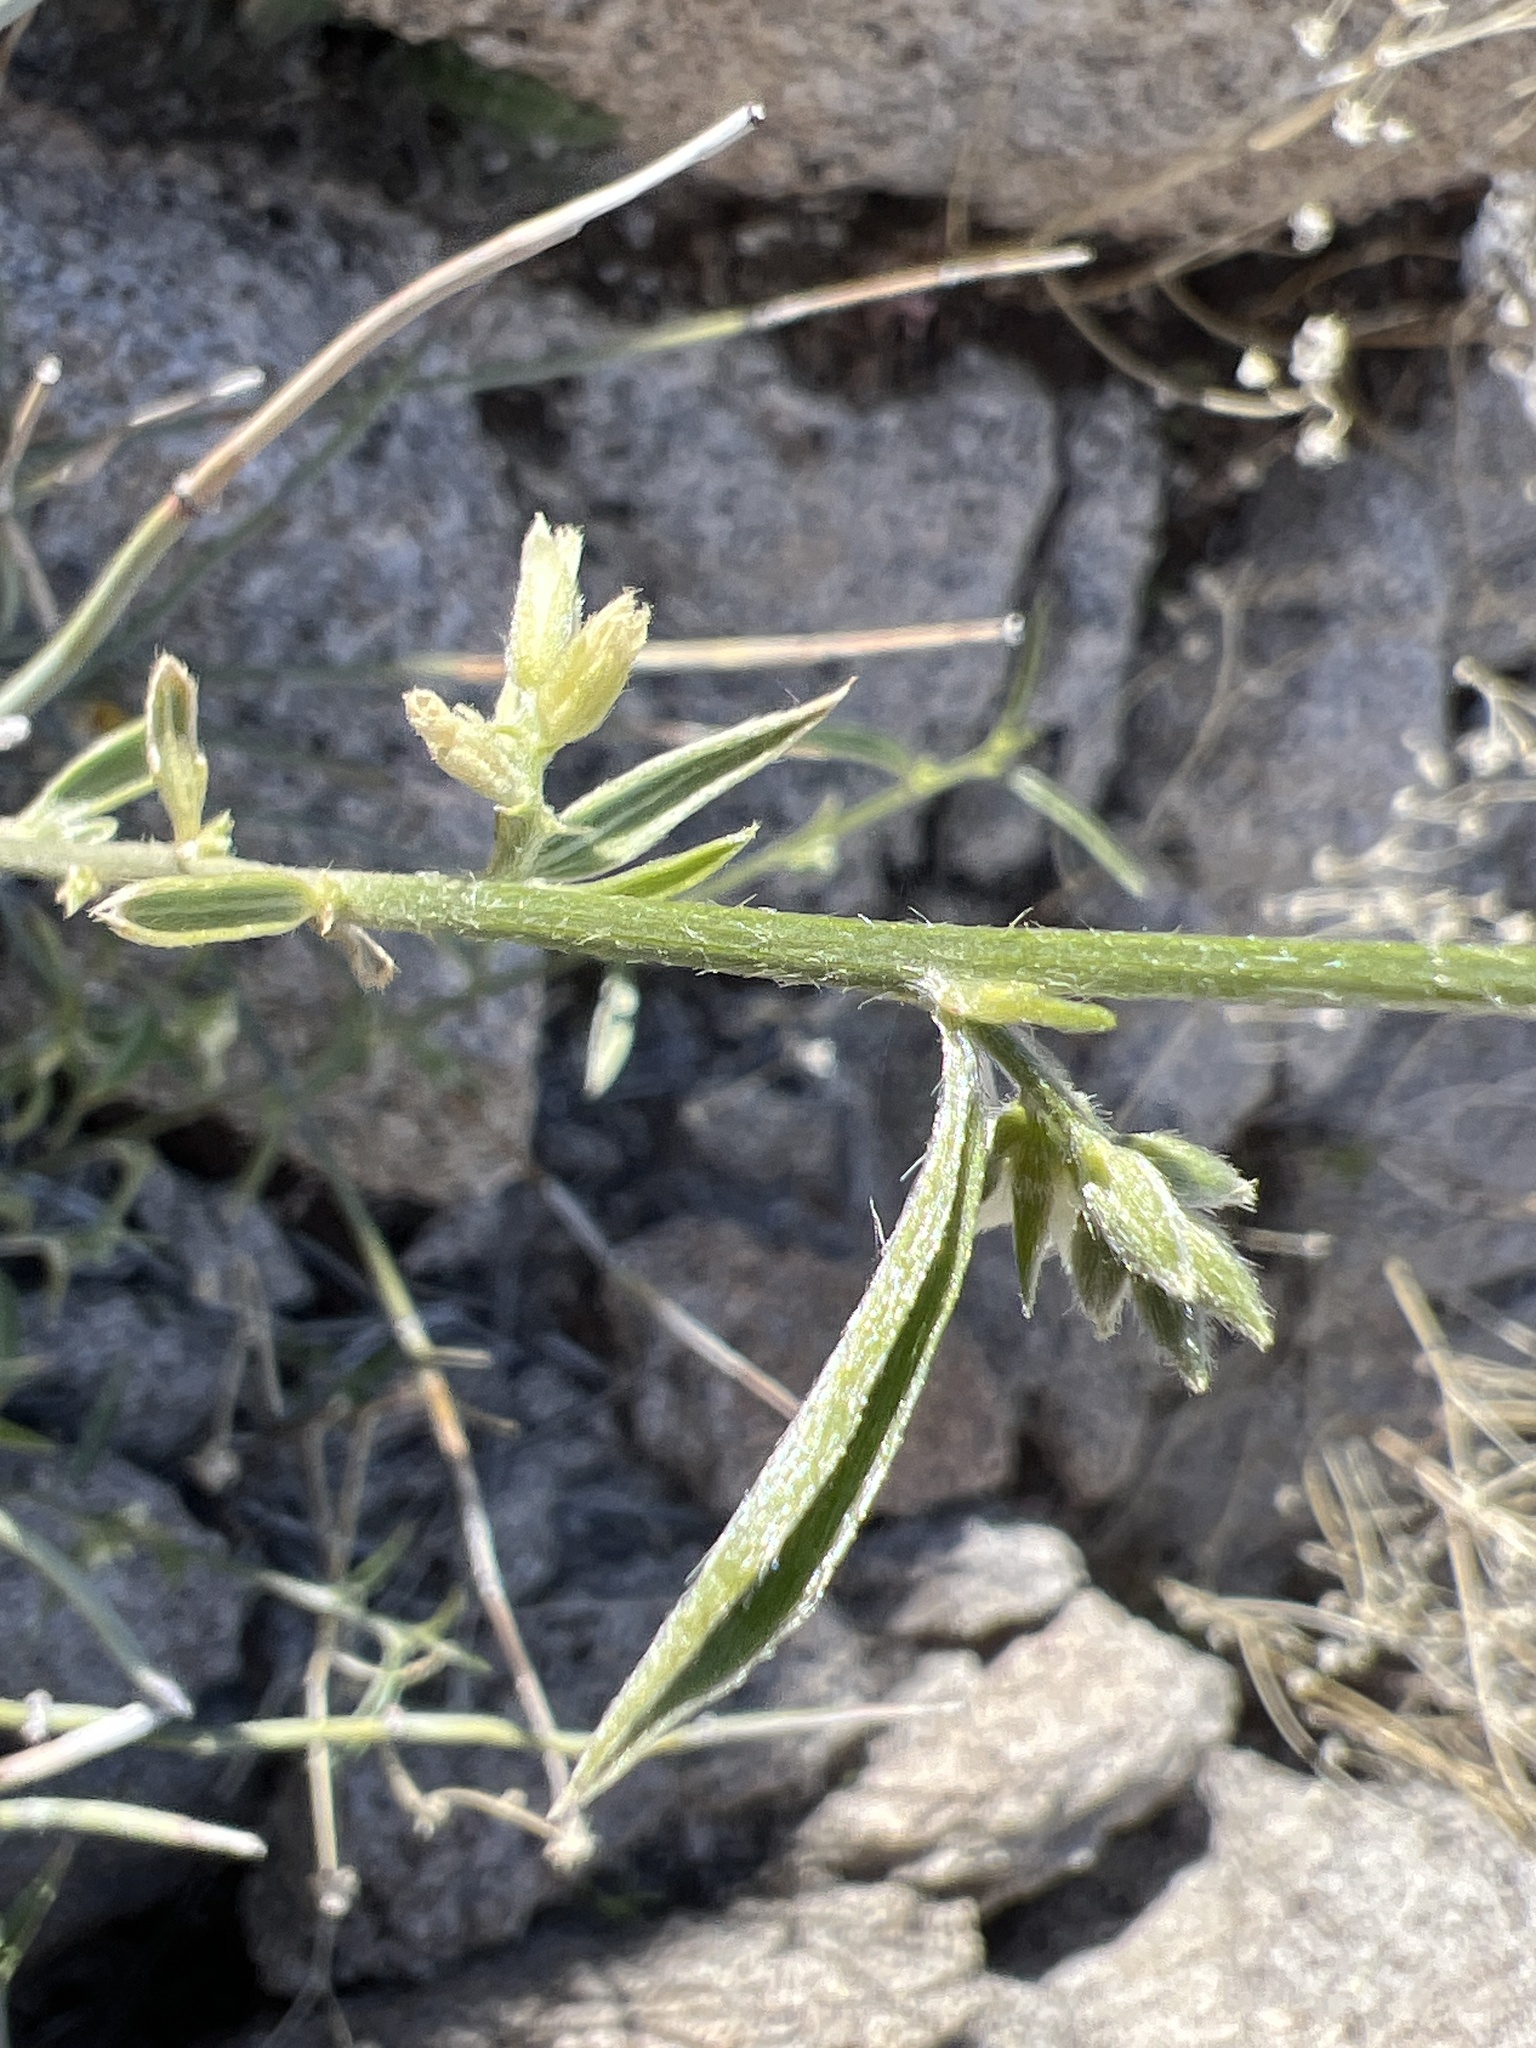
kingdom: Plantae
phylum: Tracheophyta
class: Magnoliopsida
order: Malpighiales
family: Euphorbiaceae
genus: Ditaxis
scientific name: Ditaxis lanceolata
